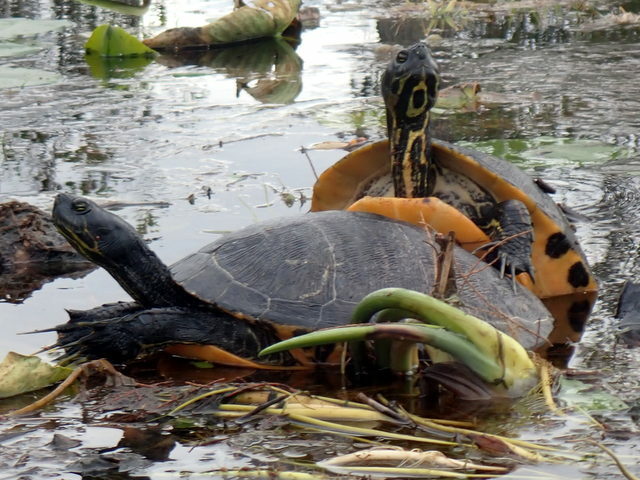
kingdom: Animalia
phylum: Chordata
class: Testudines
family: Emydidae
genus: Pseudemys
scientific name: Pseudemys concinna
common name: Eastern river cooter
